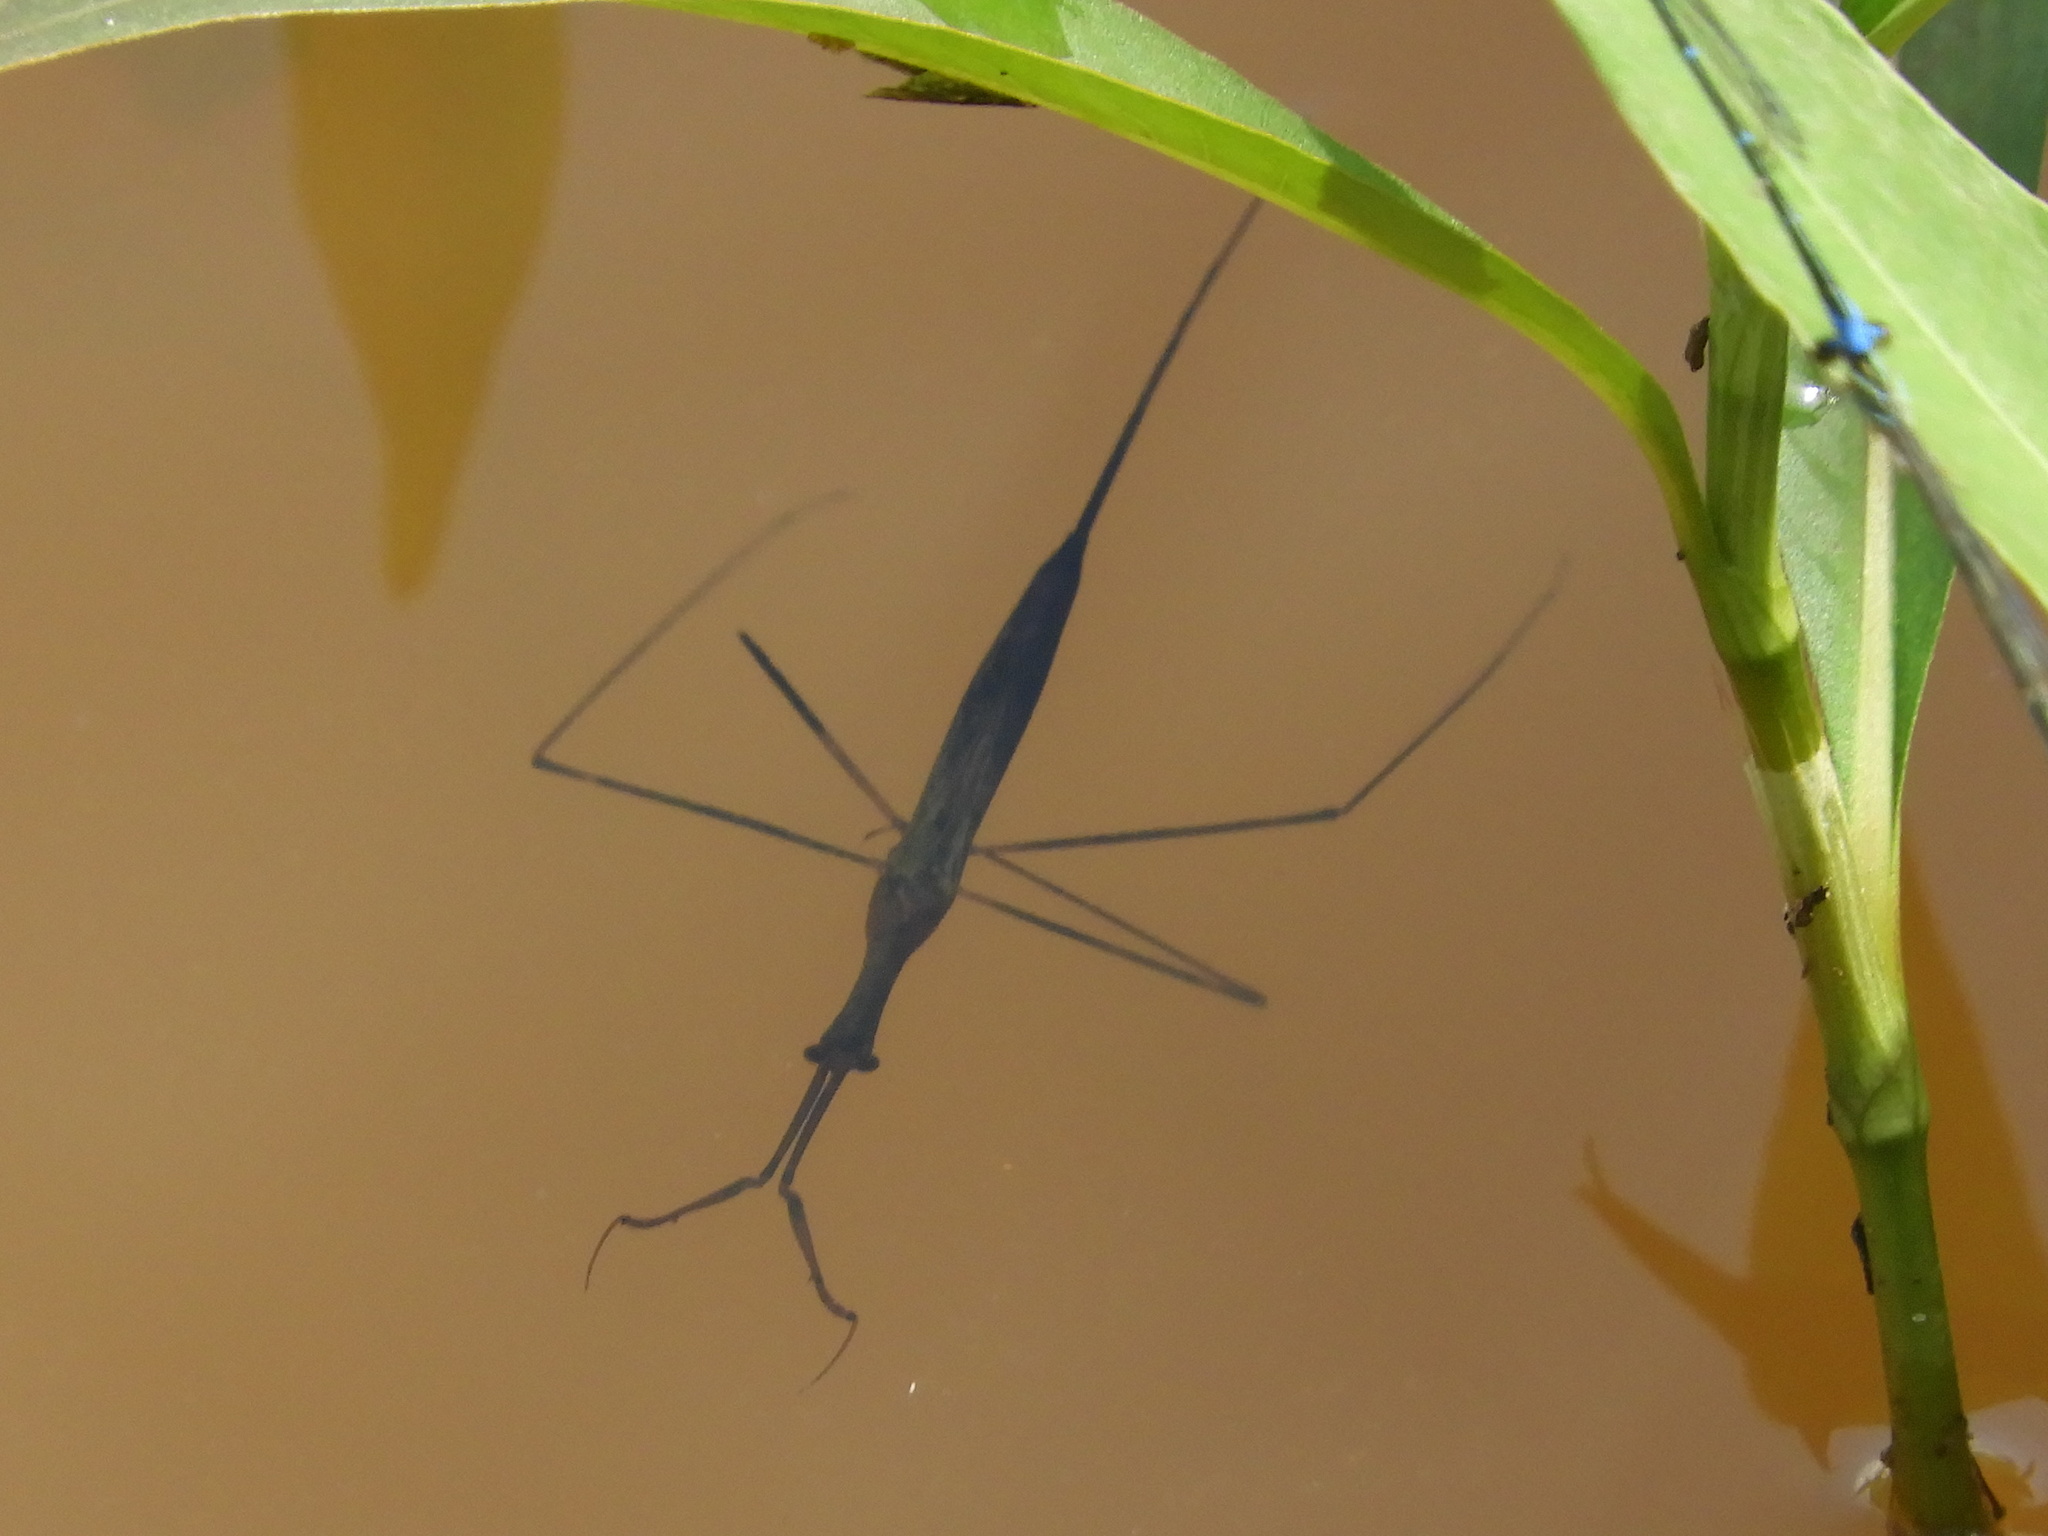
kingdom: Animalia
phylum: Arthropoda
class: Insecta
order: Hemiptera
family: Nepidae
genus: Ranatra
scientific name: Ranatra
